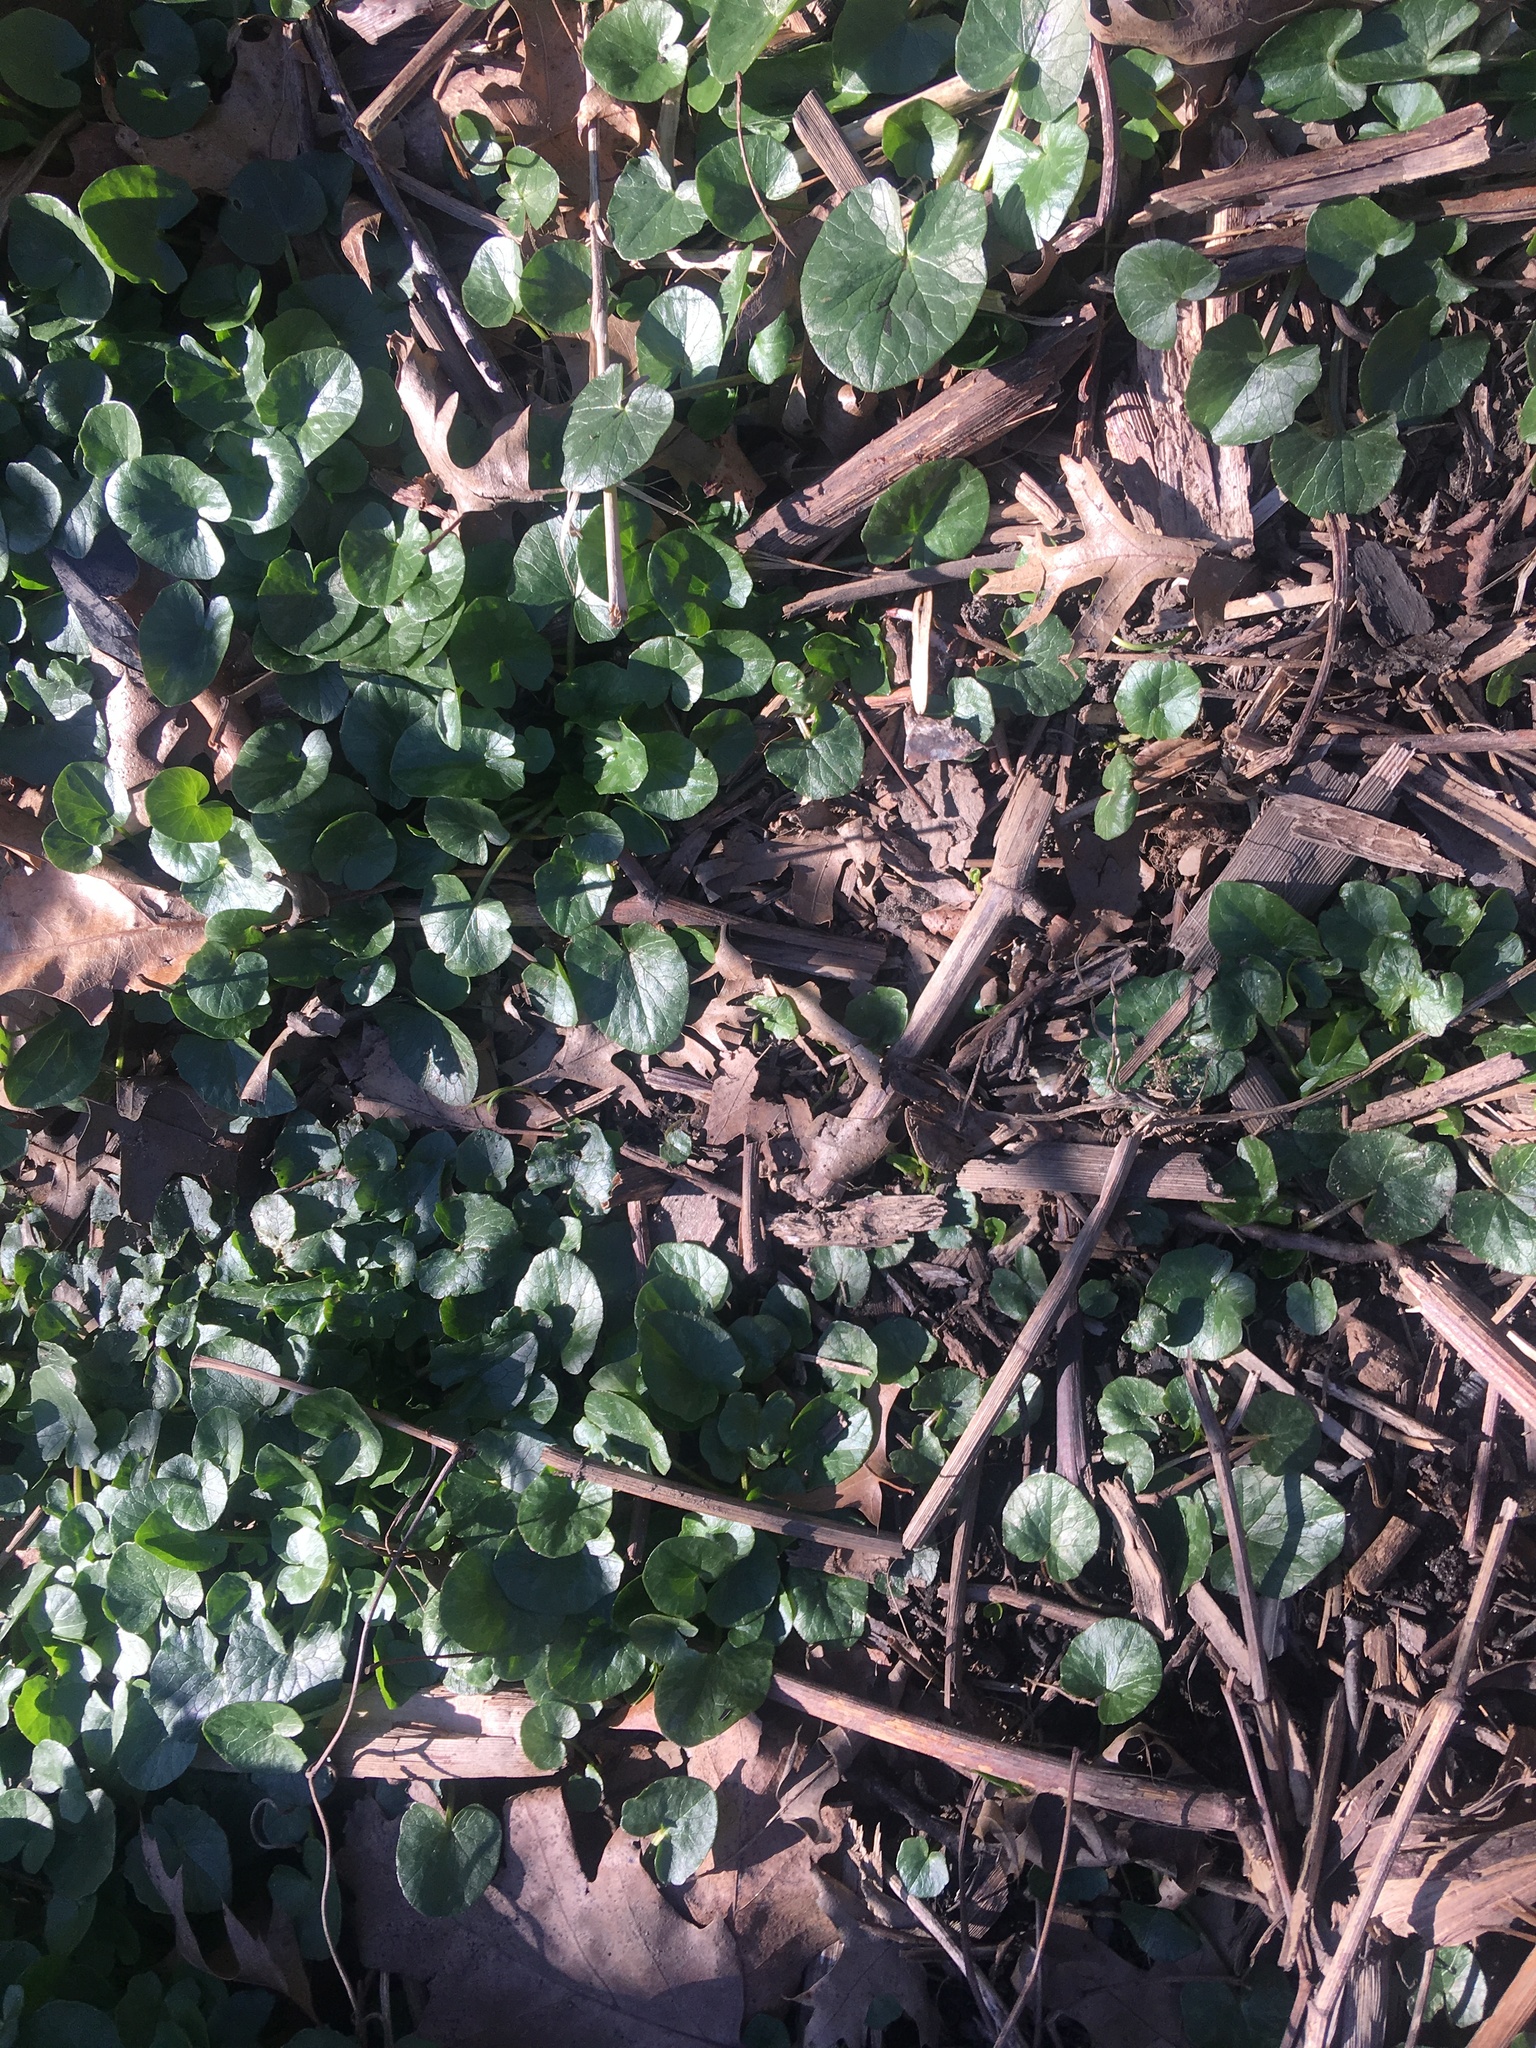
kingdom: Plantae
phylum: Tracheophyta
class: Magnoliopsida
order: Ranunculales
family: Ranunculaceae
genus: Ficaria
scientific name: Ficaria verna
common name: Lesser celandine
